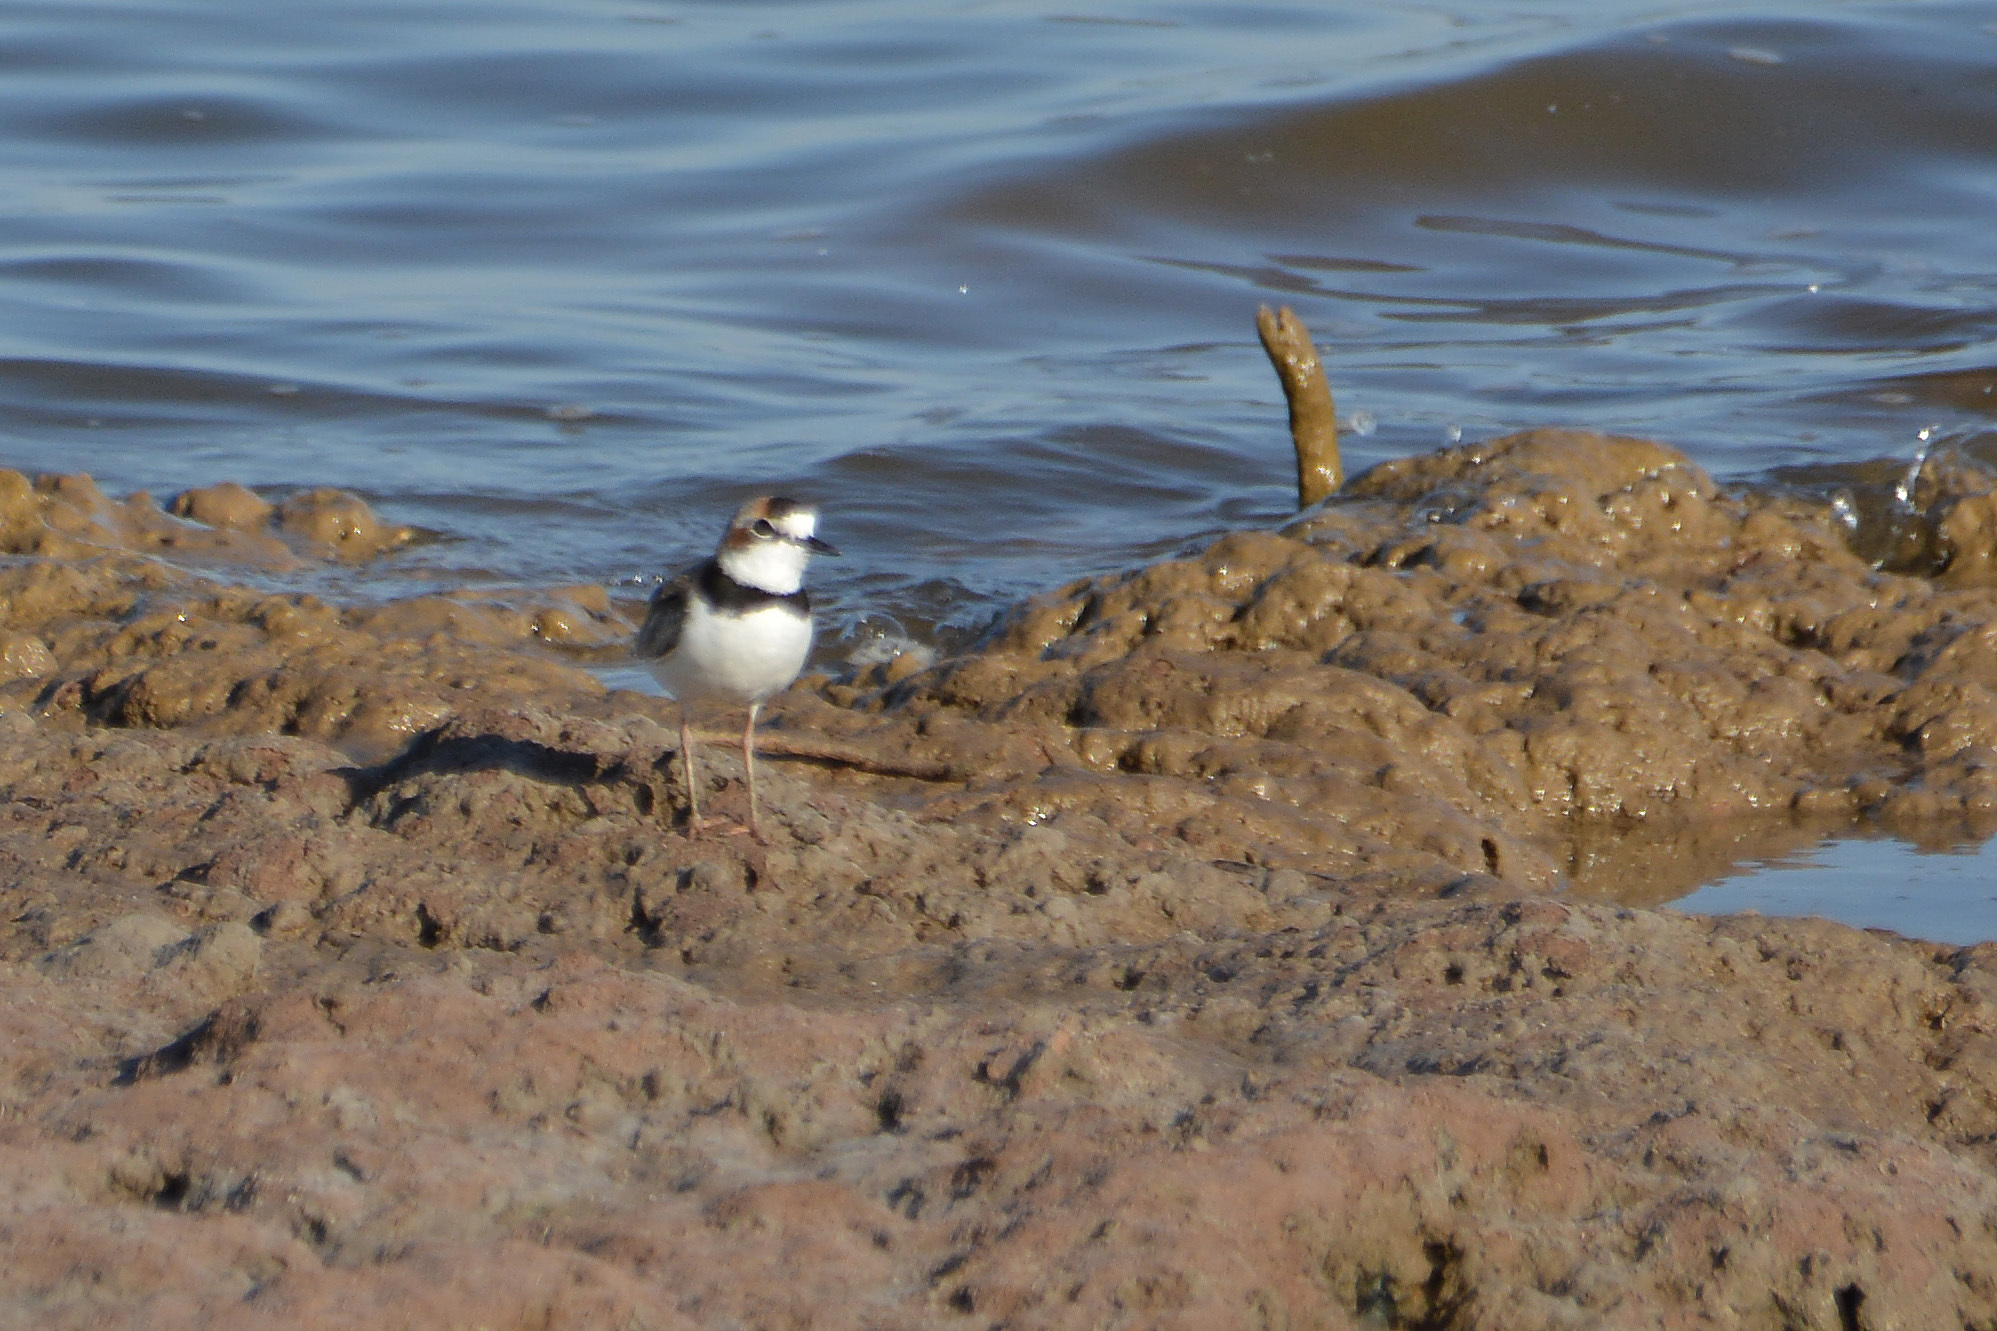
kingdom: Animalia
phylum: Chordata
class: Aves
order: Charadriiformes
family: Charadriidae
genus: Anarhynchus
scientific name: Anarhynchus
